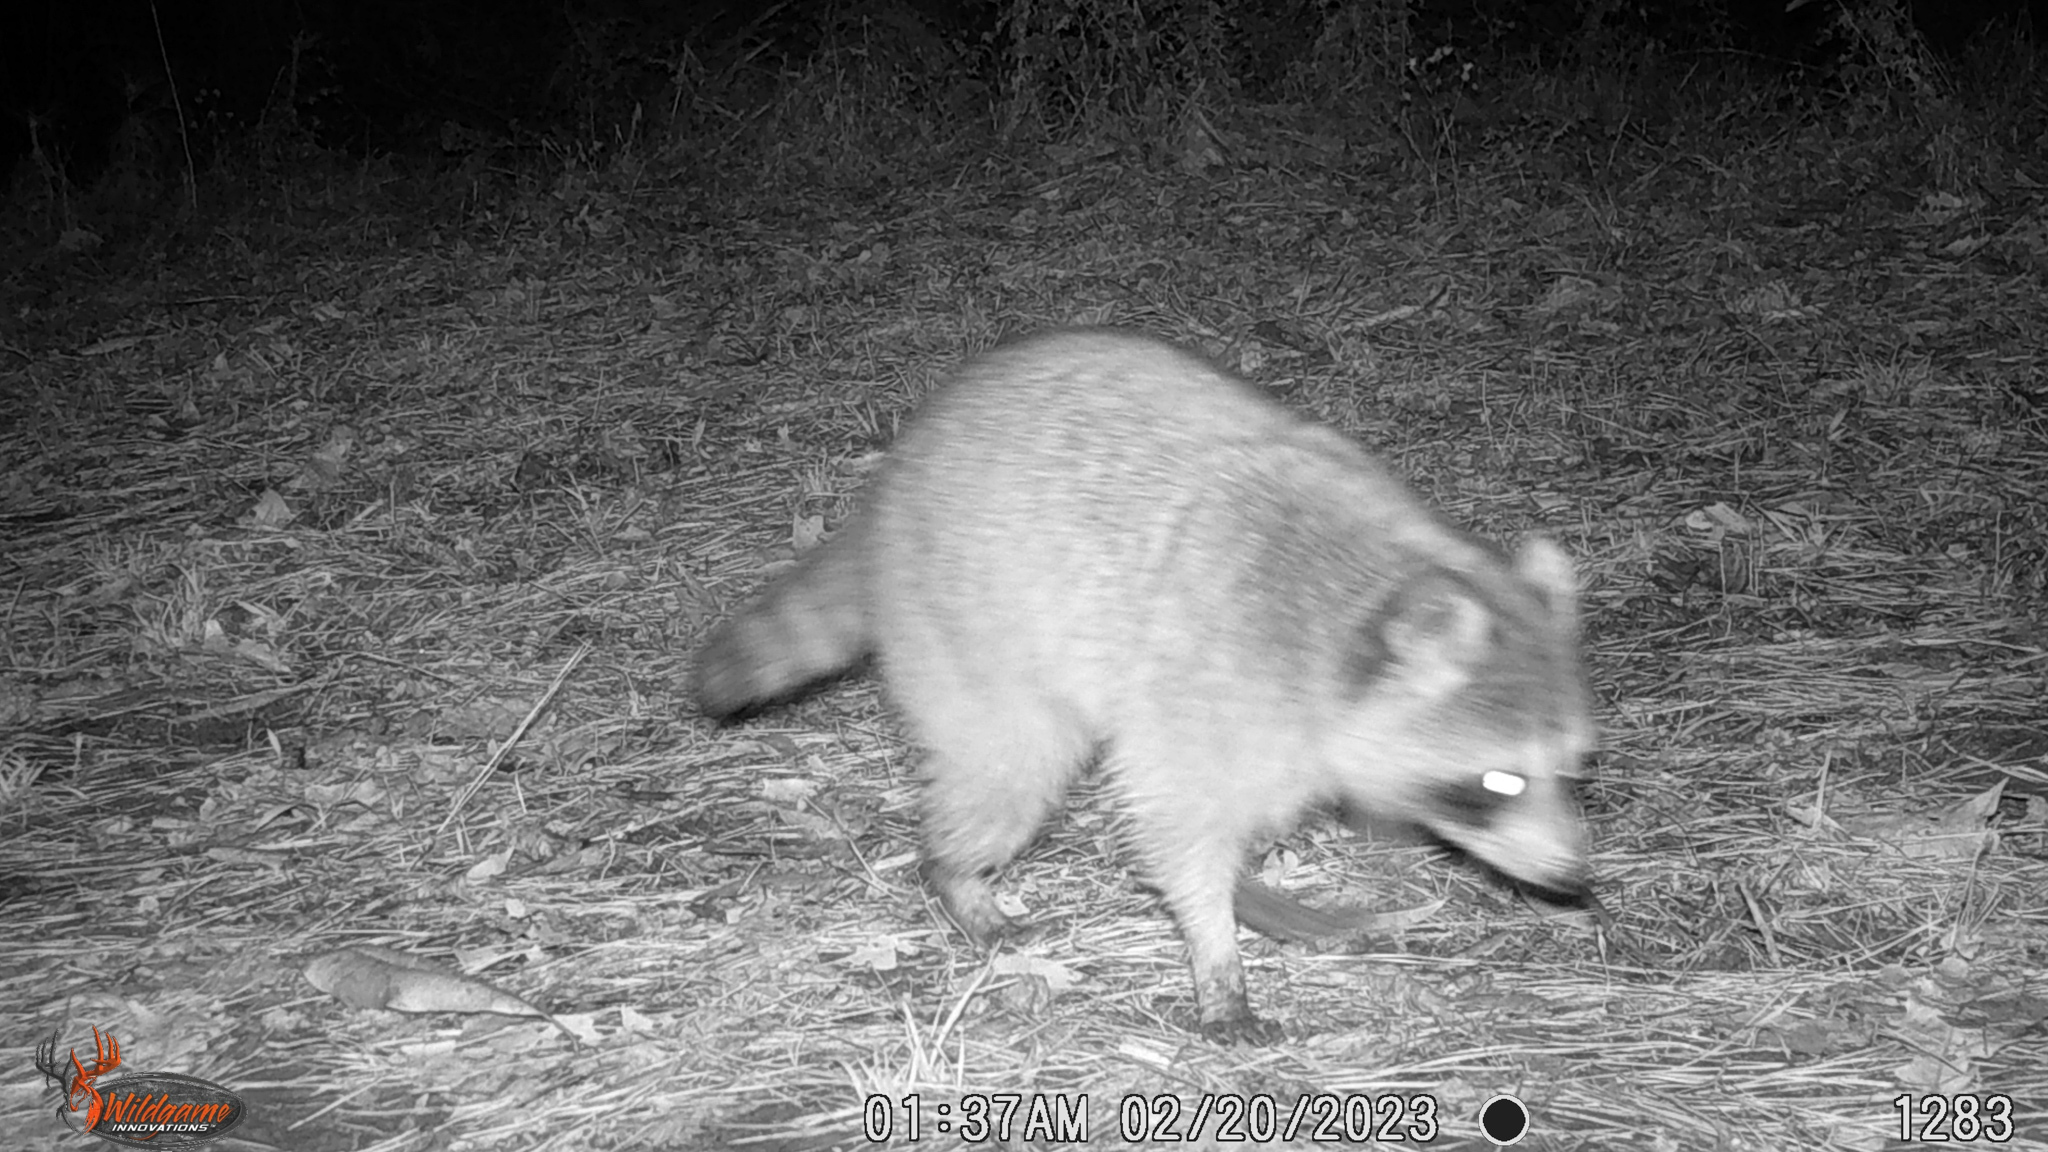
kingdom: Animalia
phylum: Chordata
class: Mammalia
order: Carnivora
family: Procyonidae
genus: Procyon
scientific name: Procyon lotor
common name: Raccoon
